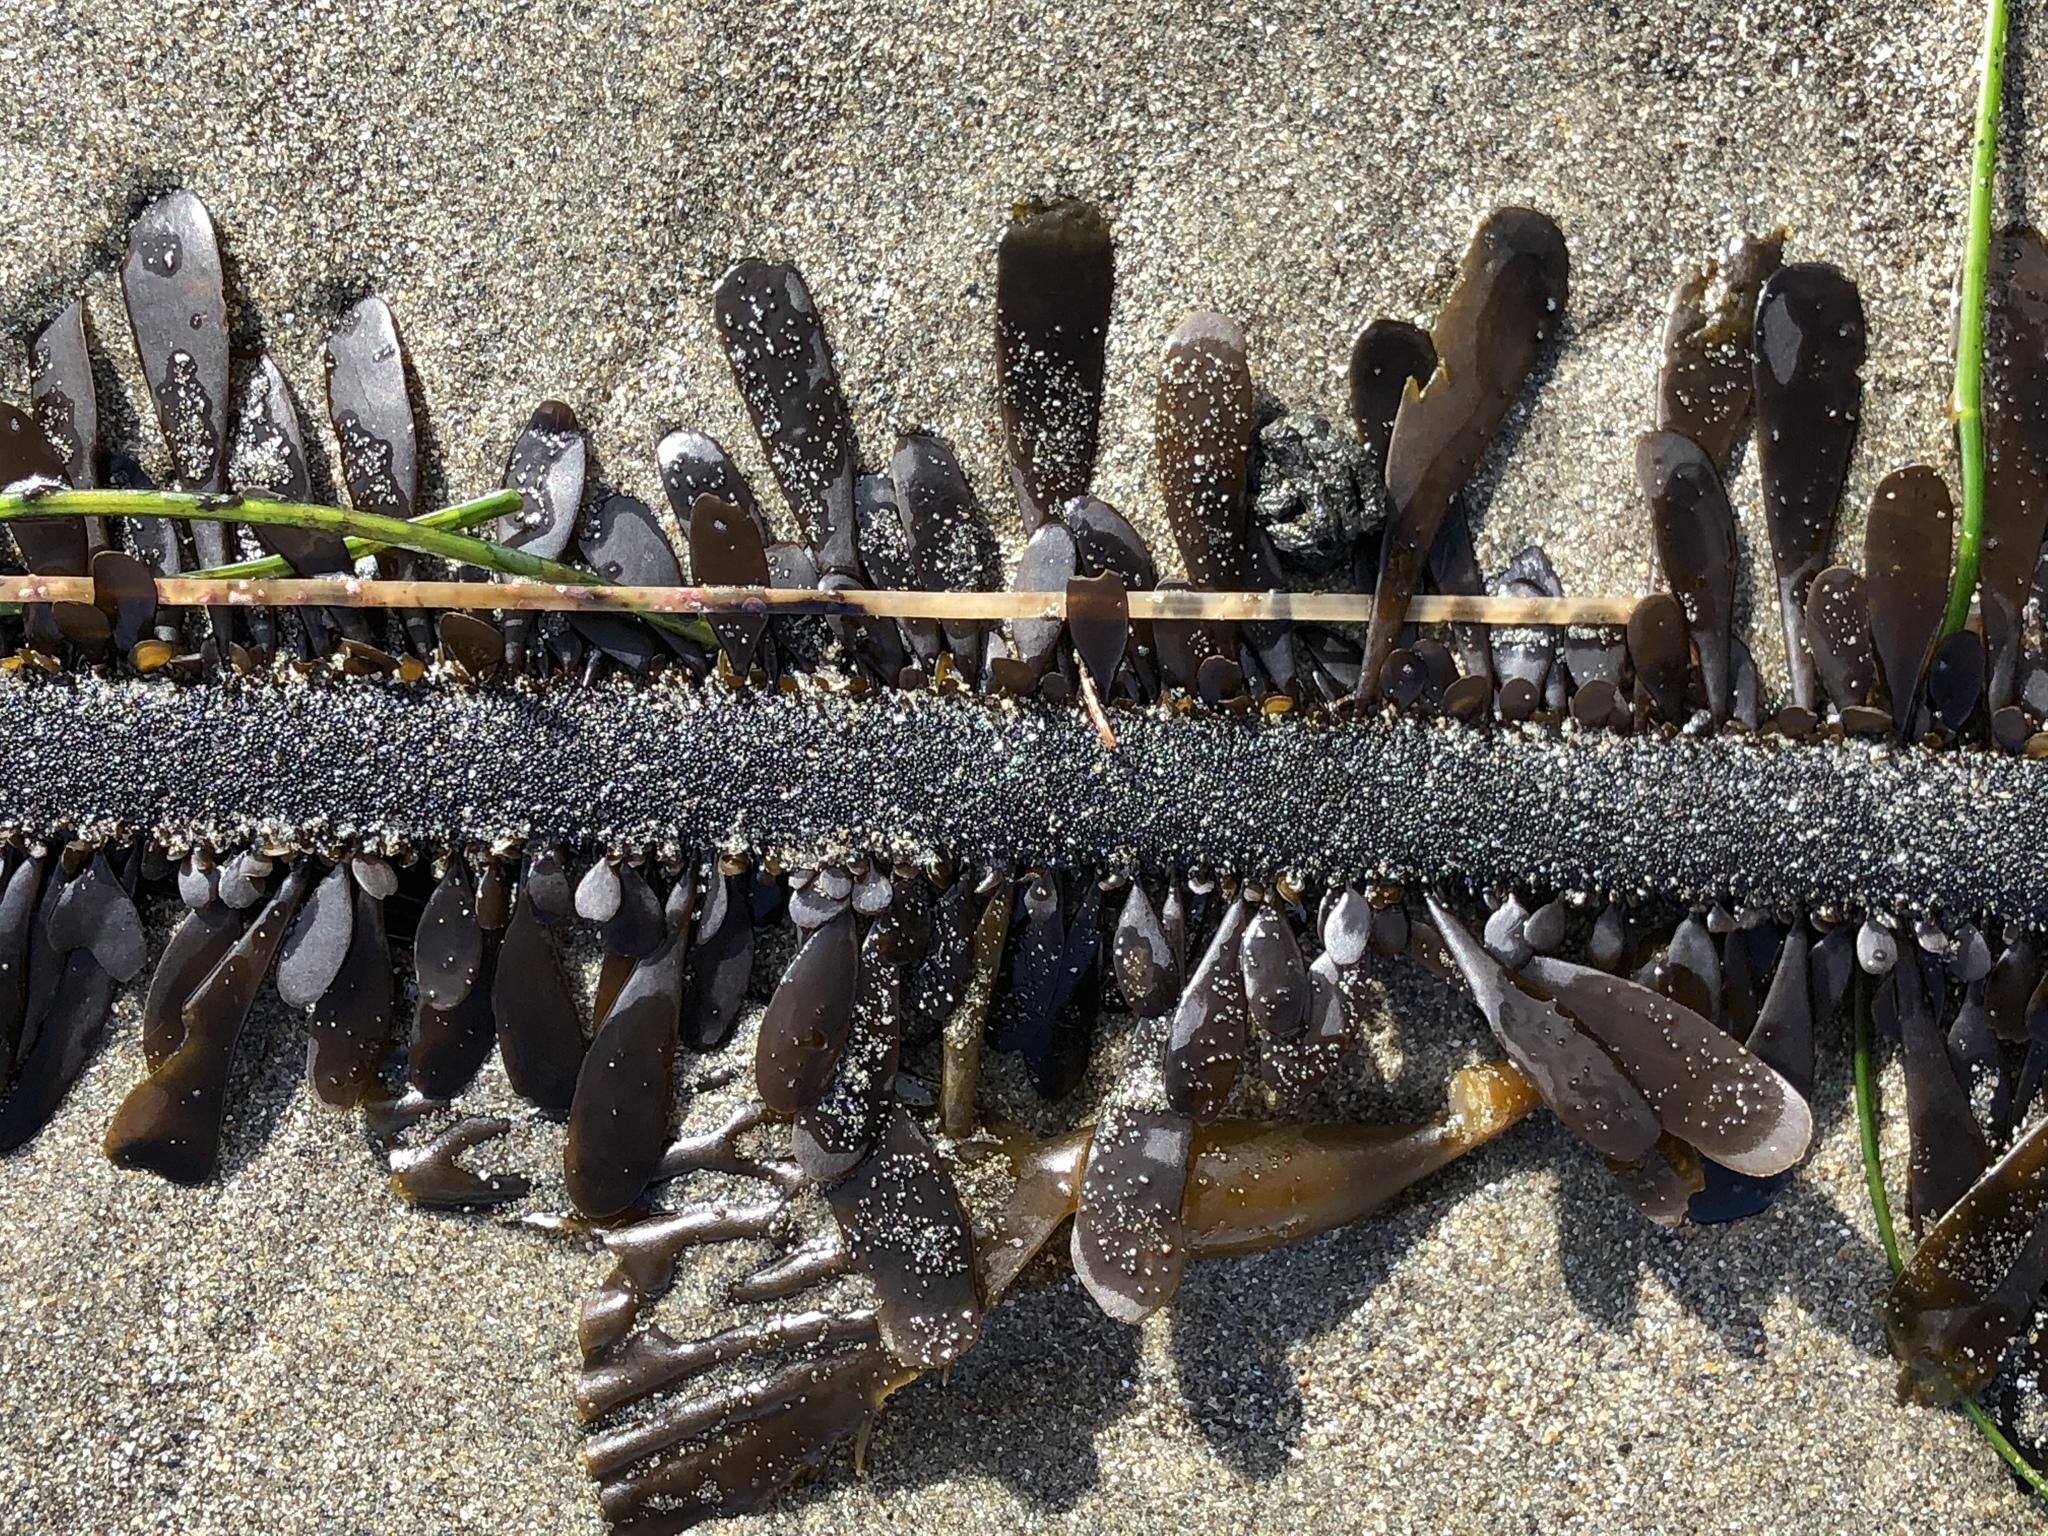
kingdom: Chromista
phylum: Ochrophyta
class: Phaeophyceae
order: Laminariales
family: Lessoniaceae
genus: Egregia
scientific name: Egregia menziesii
